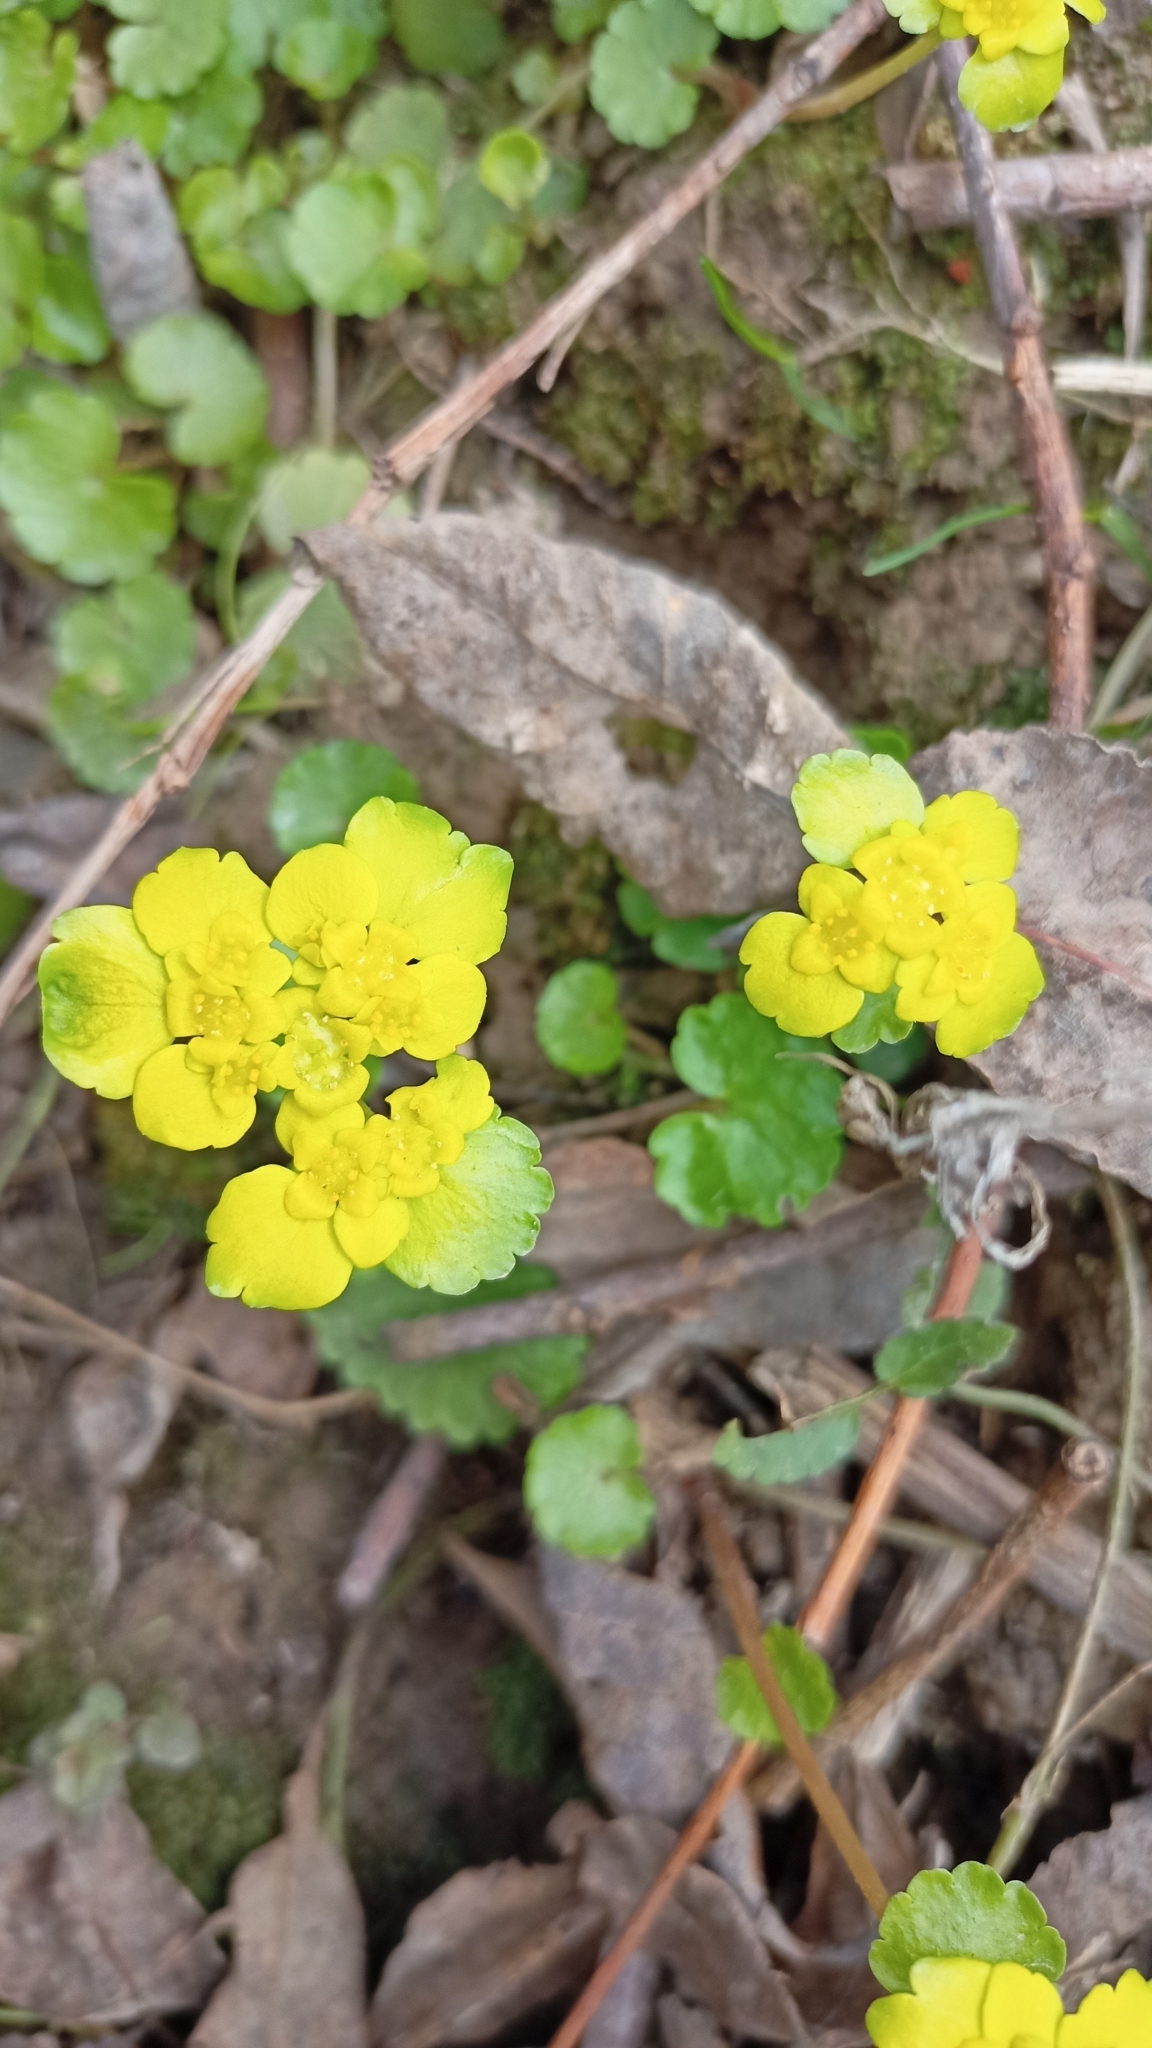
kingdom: Plantae
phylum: Tracheophyta
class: Magnoliopsida
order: Saxifragales
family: Saxifragaceae
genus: Chrysosplenium
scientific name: Chrysosplenium alternifolium
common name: Alternate-leaved golden-saxifrage
